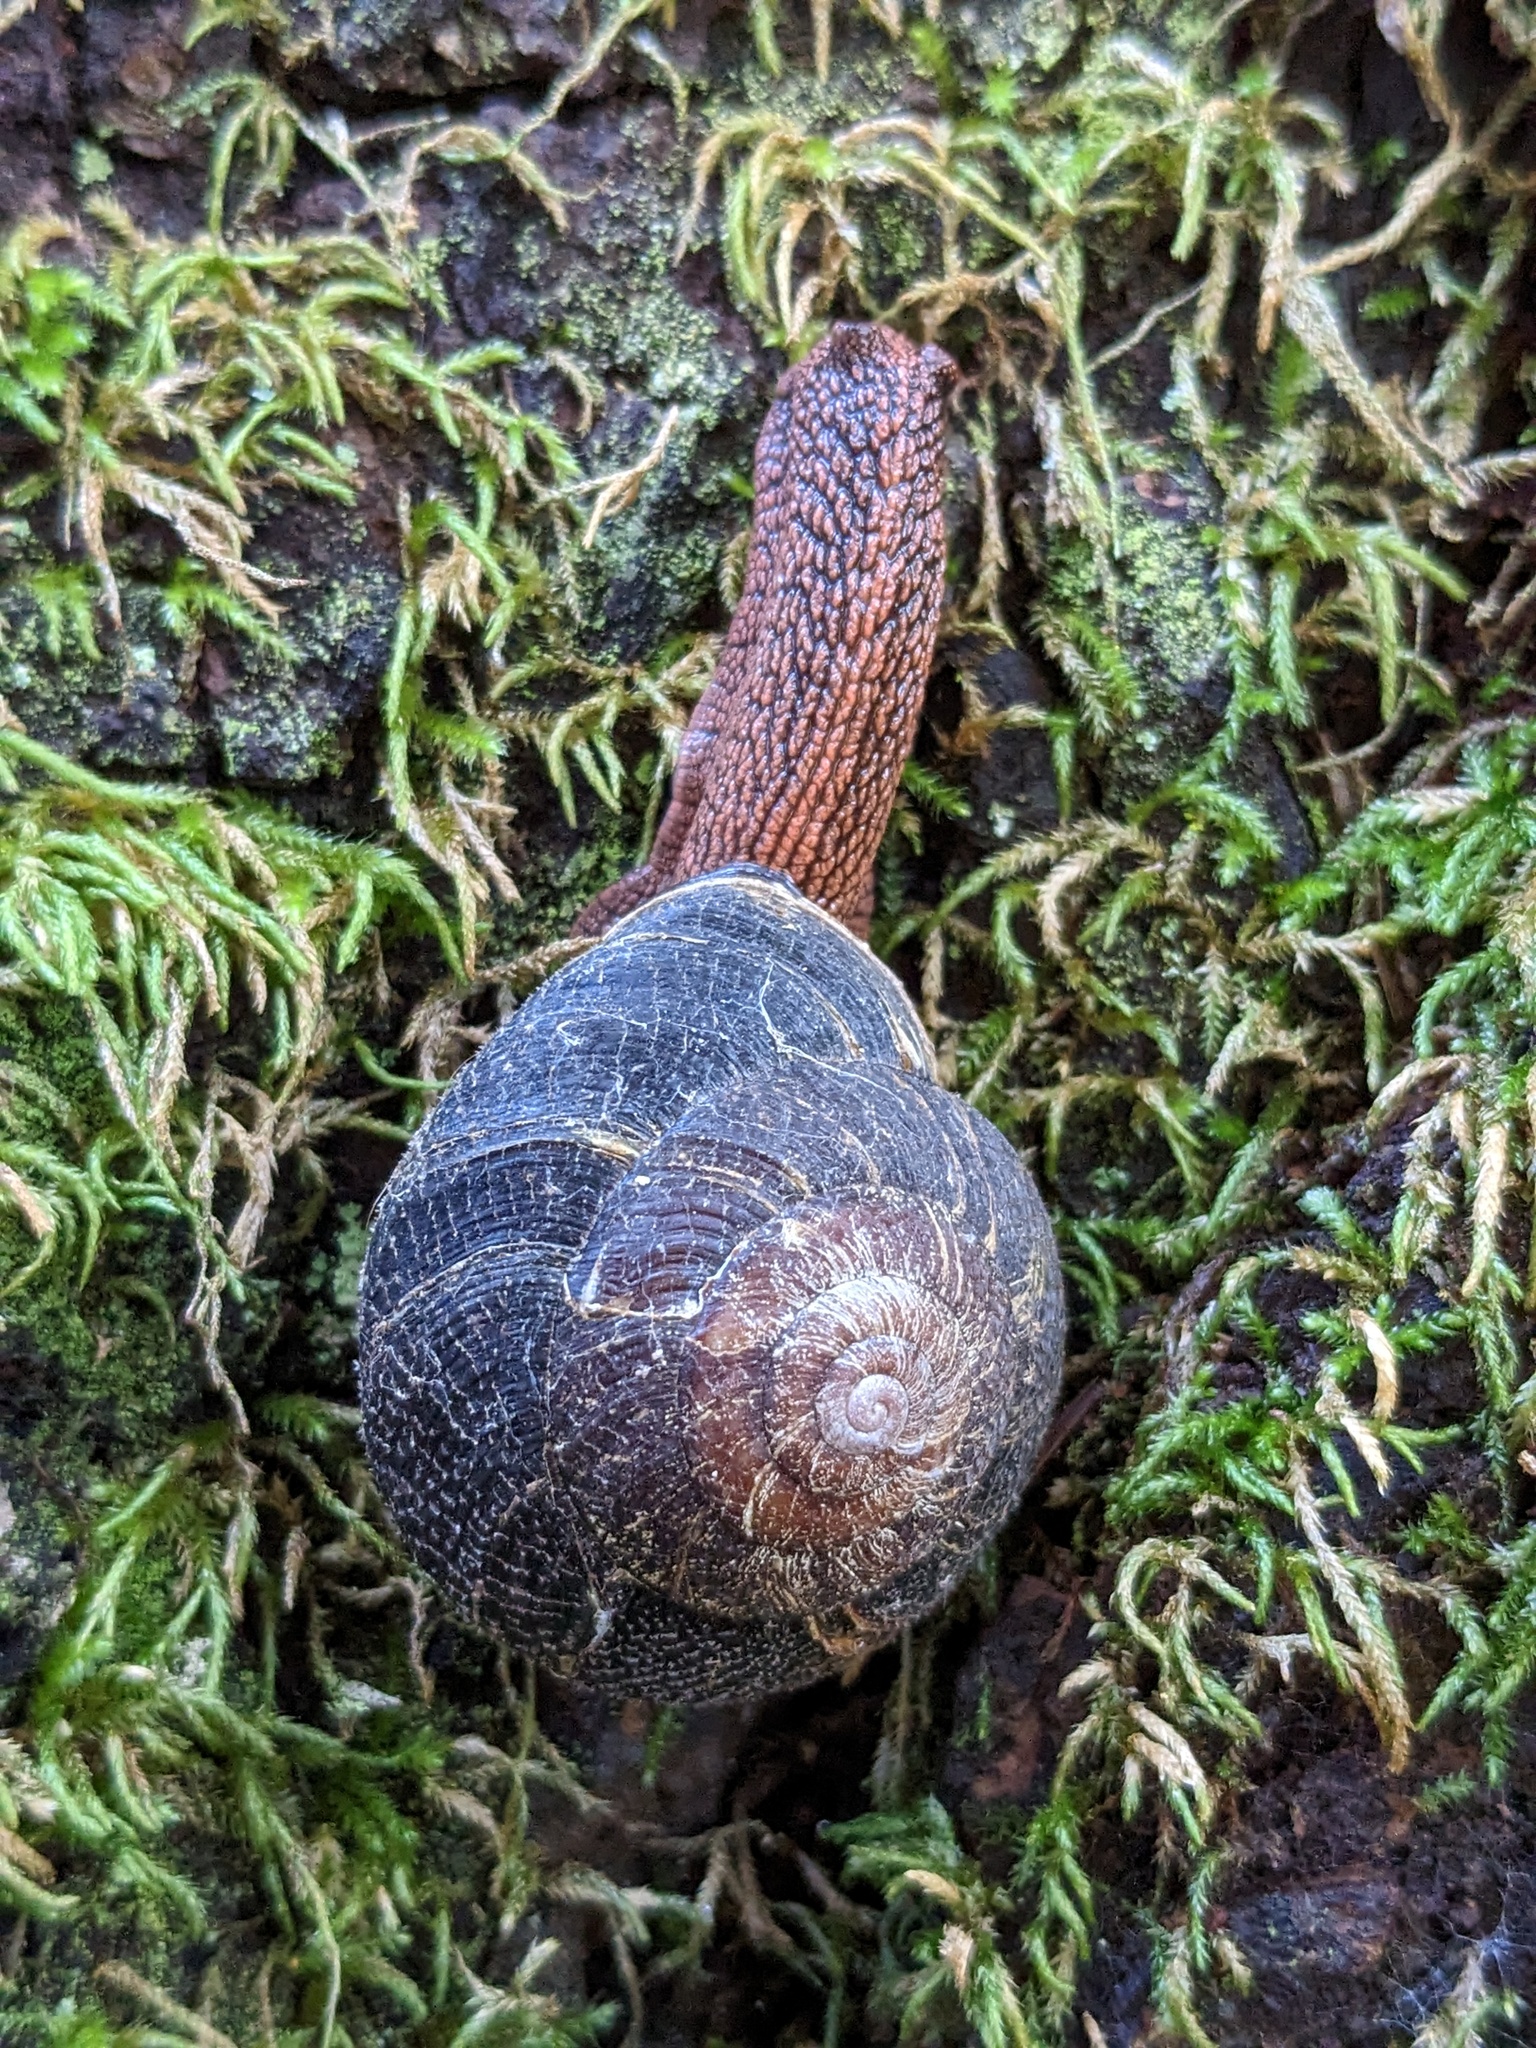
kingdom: Animalia
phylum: Mollusca
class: Gastropoda
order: Stylommatophora
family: Xanthonychidae
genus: Monadenia
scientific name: Monadenia infumata
